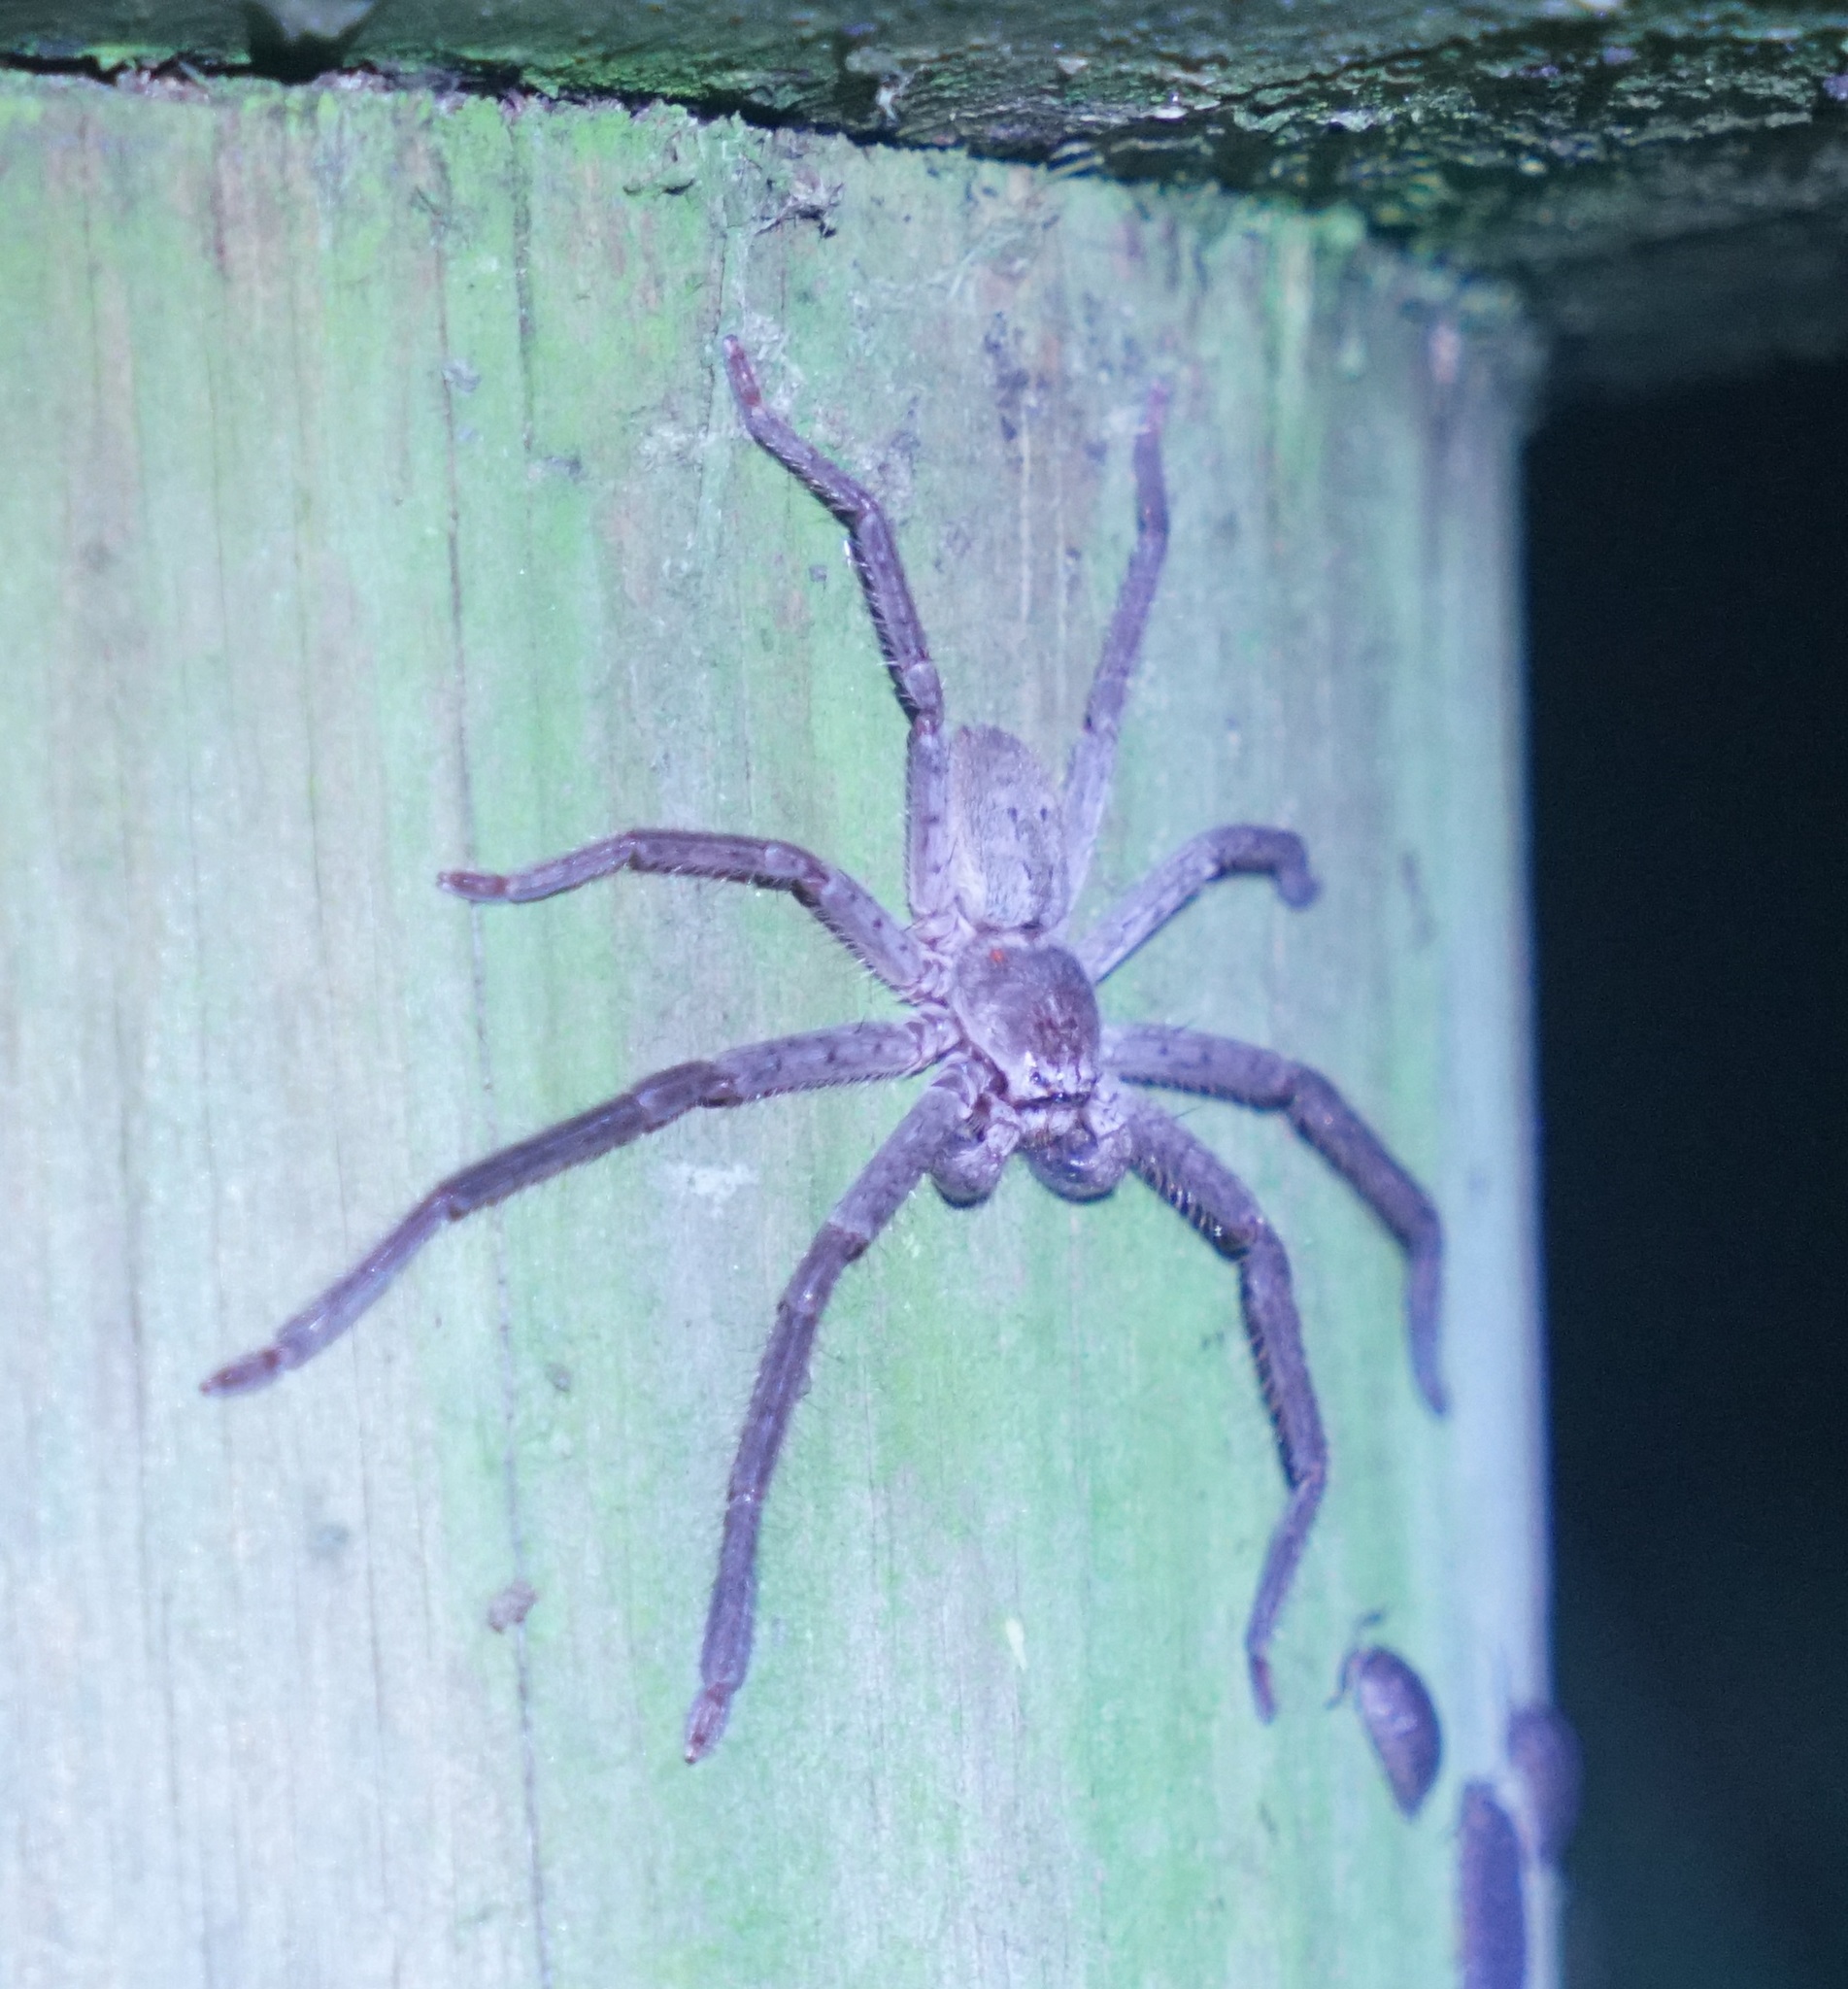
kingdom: Animalia
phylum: Arthropoda
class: Arachnida
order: Araneae
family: Sparassidae
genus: Isopeda
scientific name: Isopeda villosa
